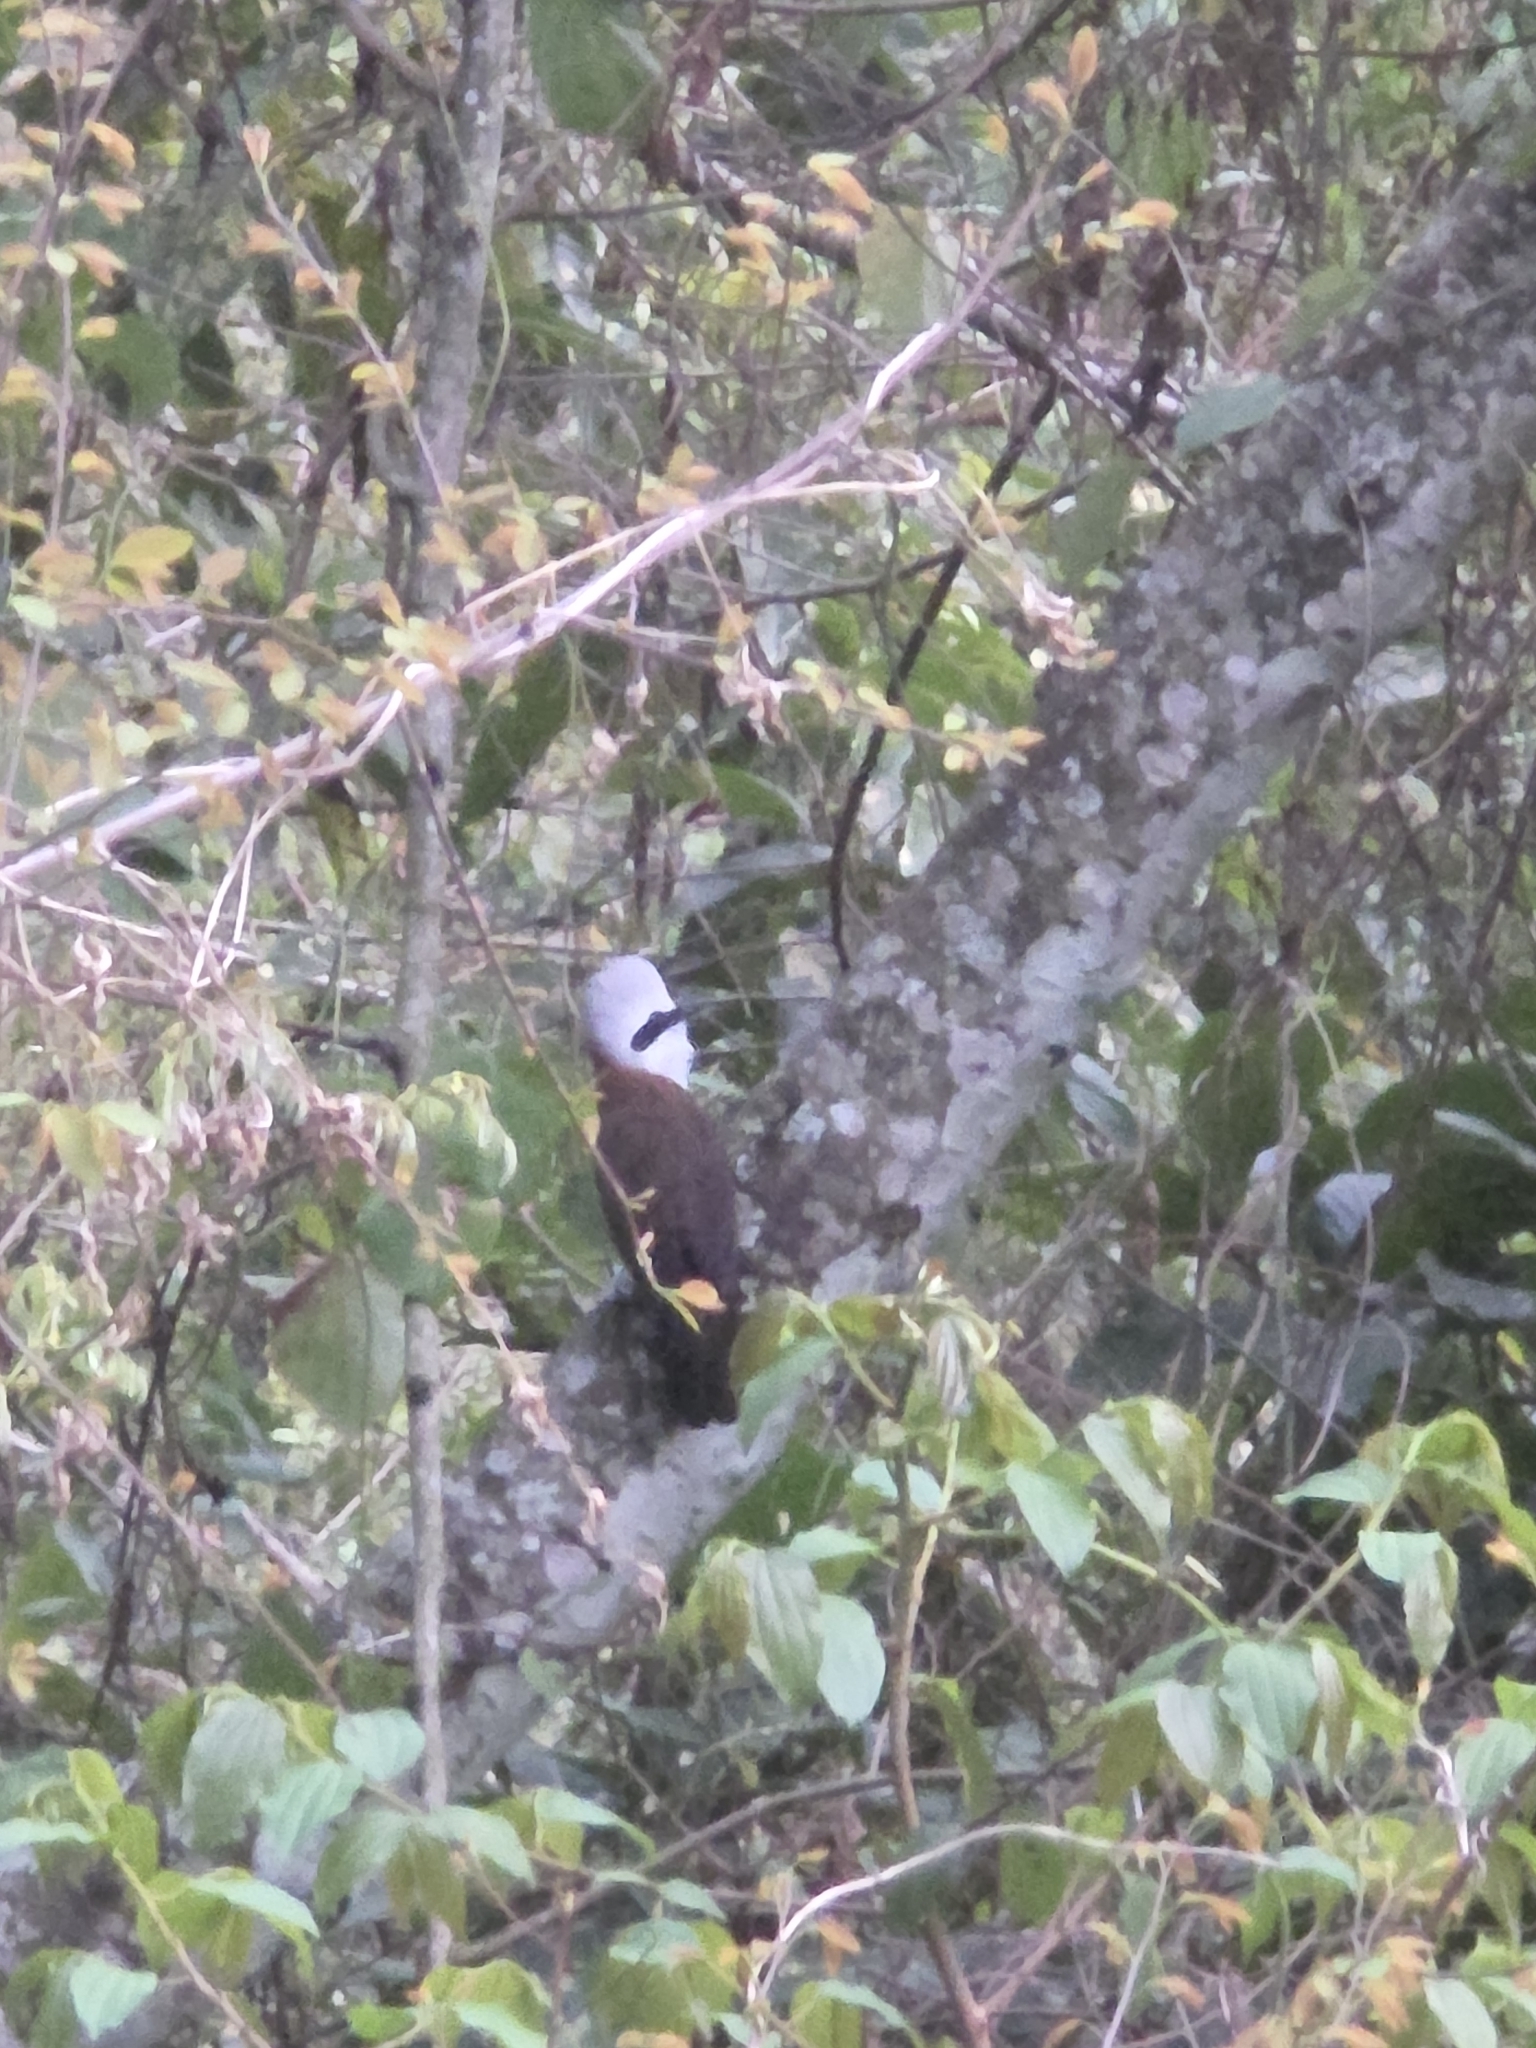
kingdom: Animalia
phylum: Chordata
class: Aves
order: Passeriformes
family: Leiothrichidae
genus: Garrulax
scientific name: Garrulax leucolophus
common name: White-crested laughingthrush
